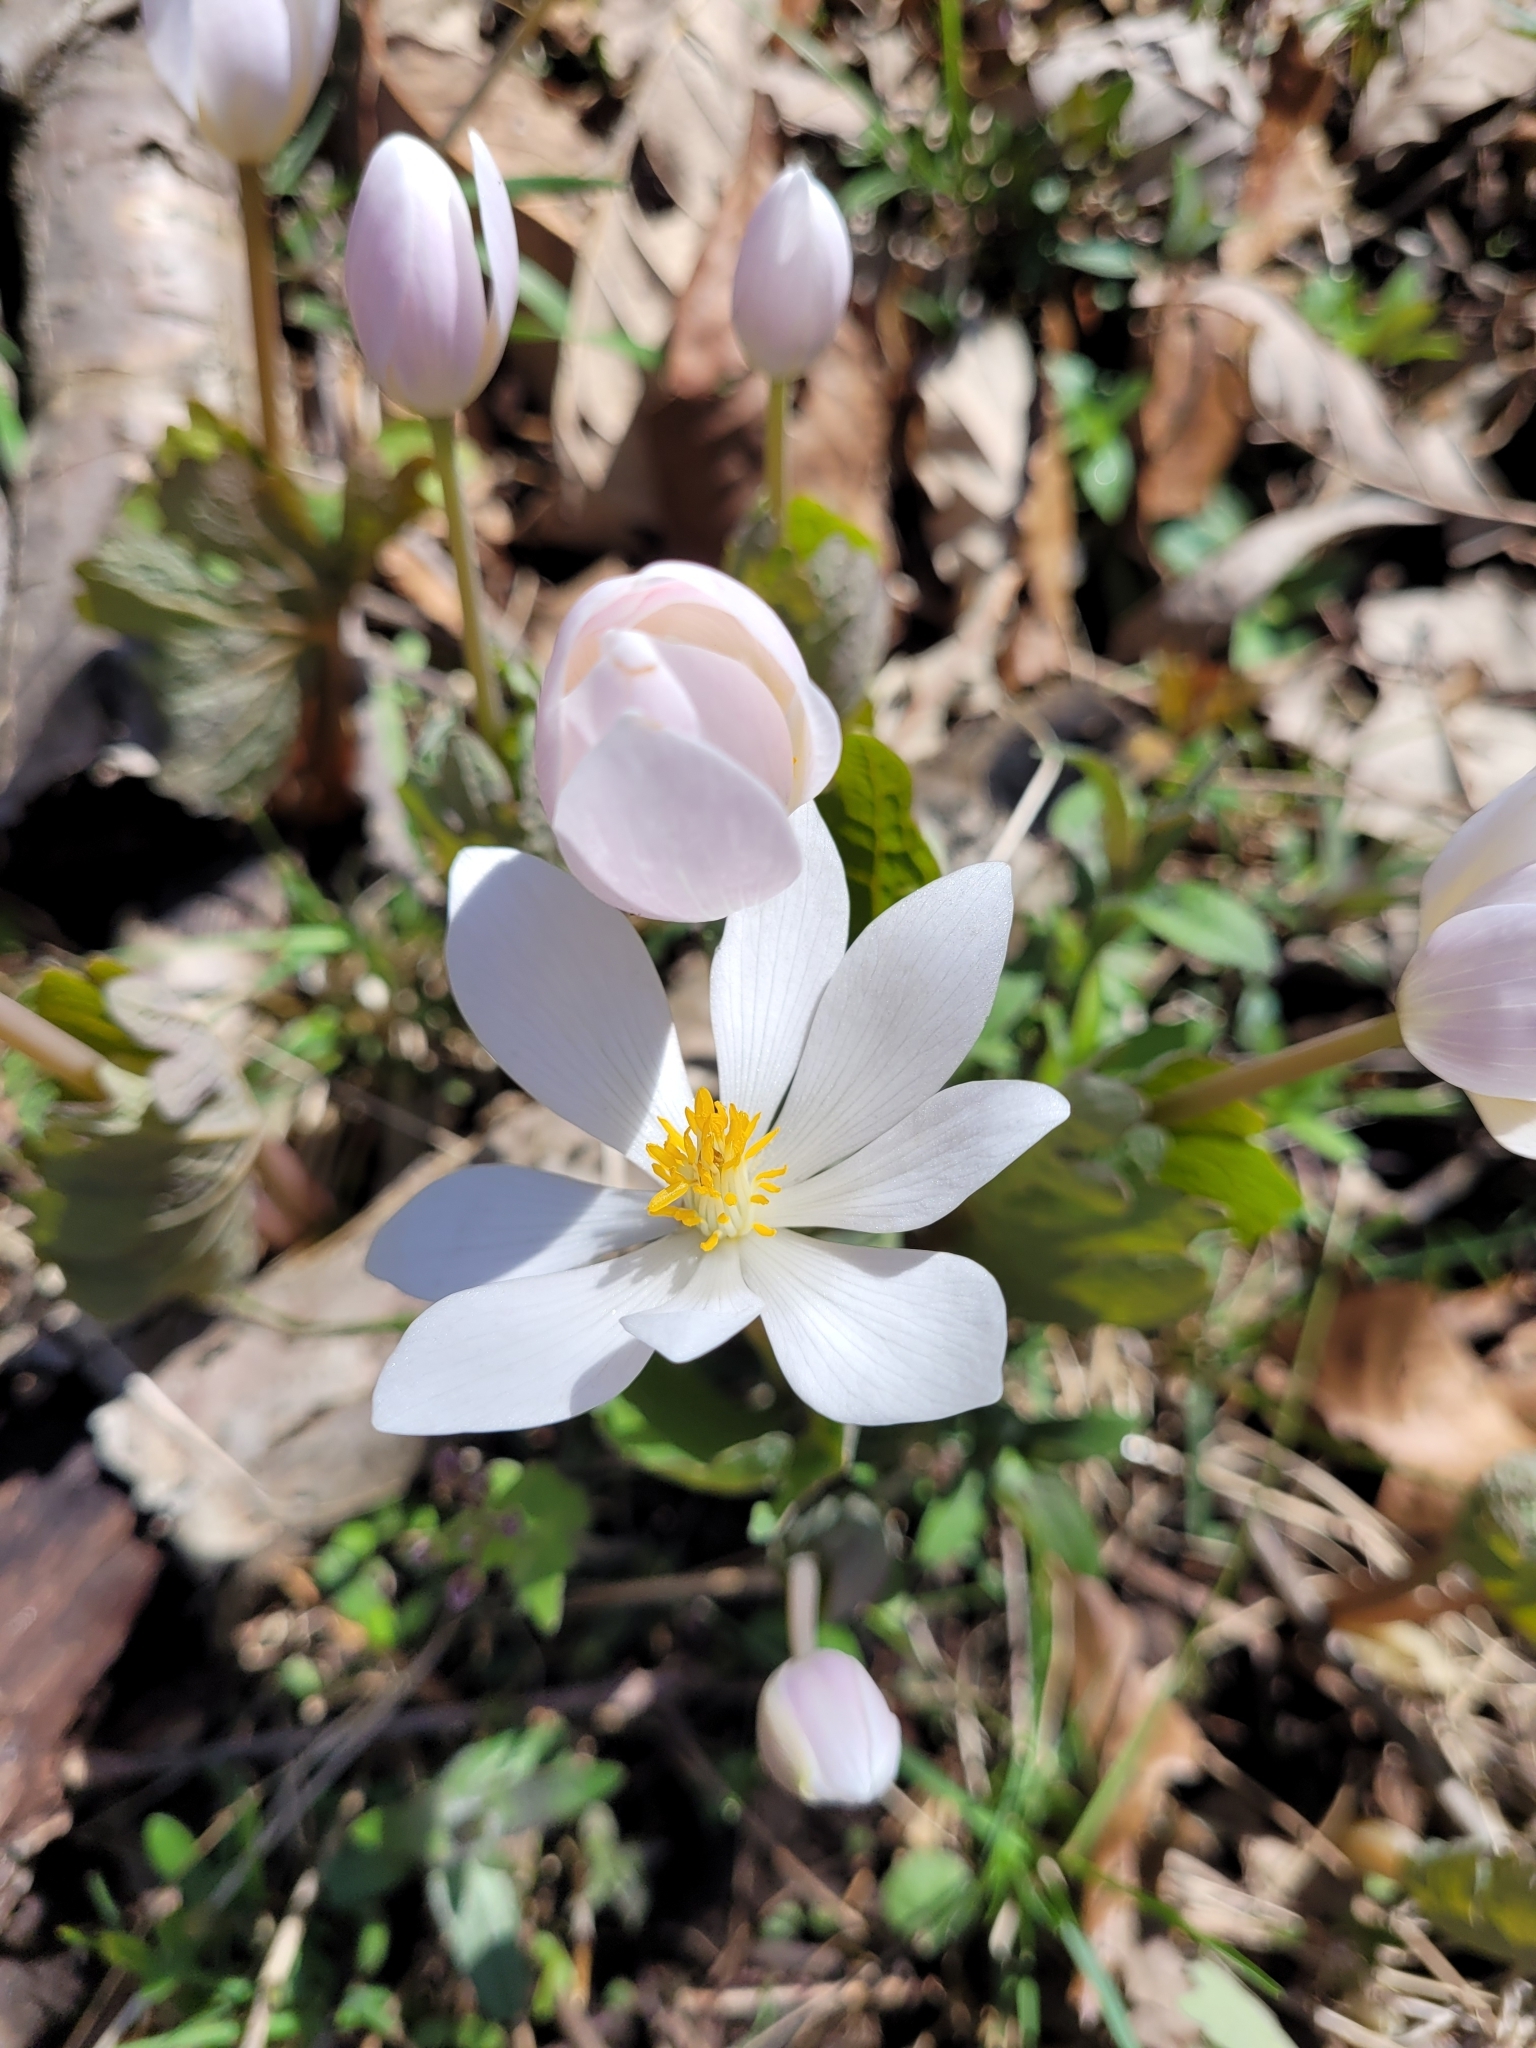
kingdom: Plantae
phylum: Tracheophyta
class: Magnoliopsida
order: Ranunculales
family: Papaveraceae
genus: Sanguinaria
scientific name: Sanguinaria canadensis
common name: Bloodroot
